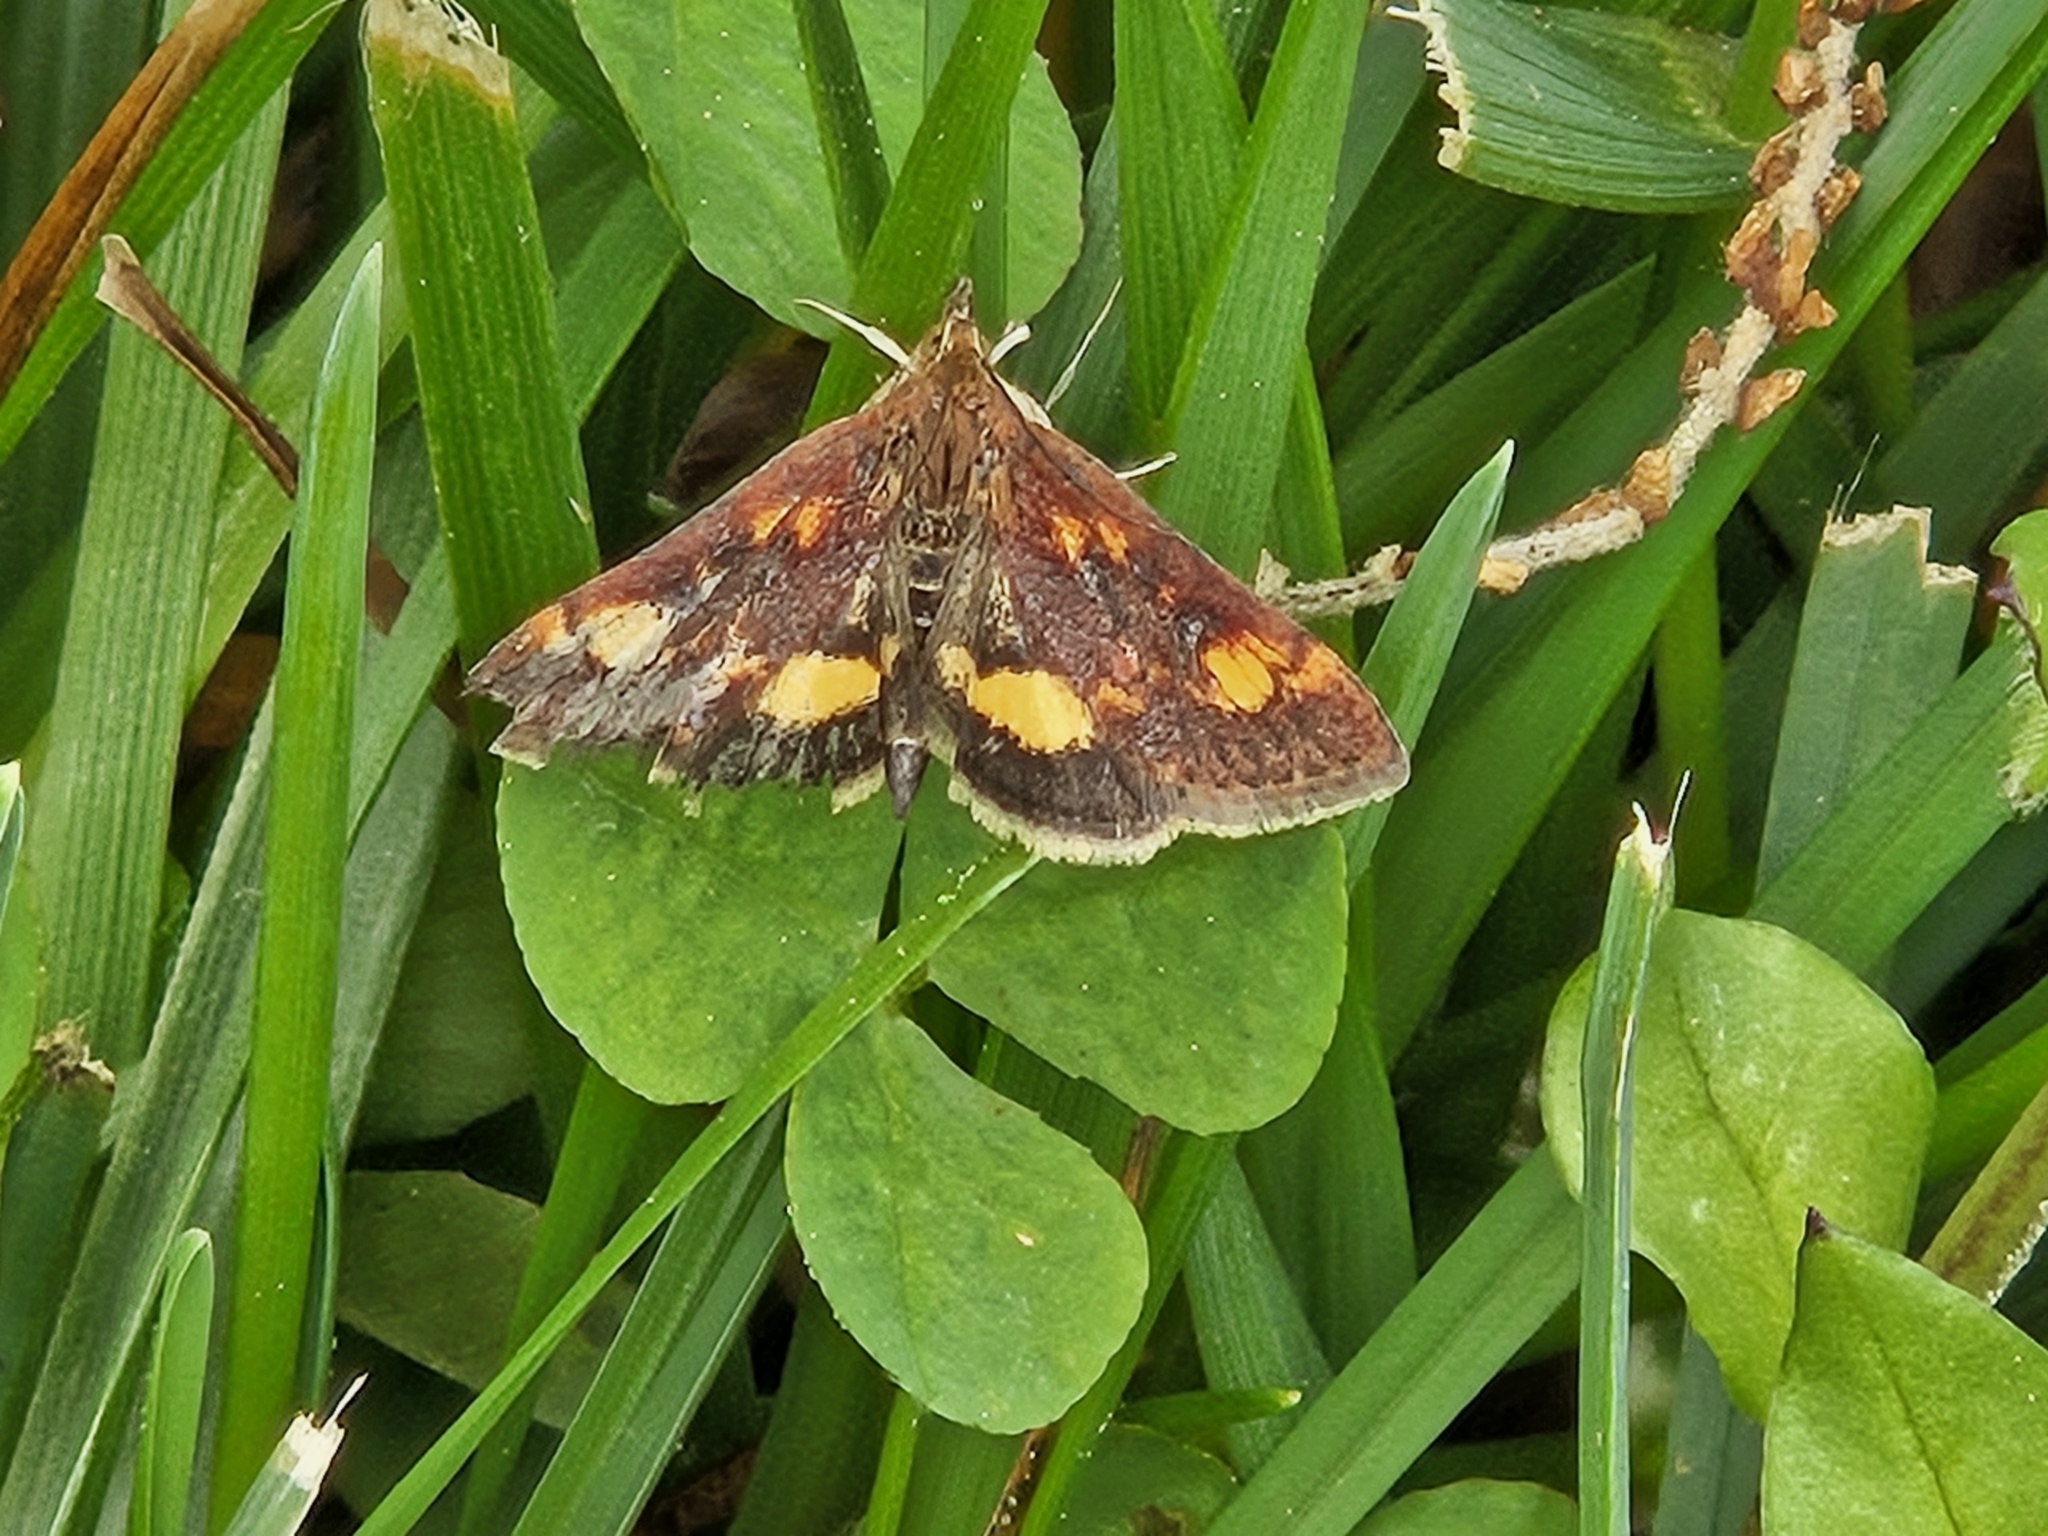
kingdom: Animalia
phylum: Arthropoda
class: Insecta
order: Lepidoptera
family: Crambidae
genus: Pyrausta
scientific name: Pyrausta orphisalis
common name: Orange mint moth
